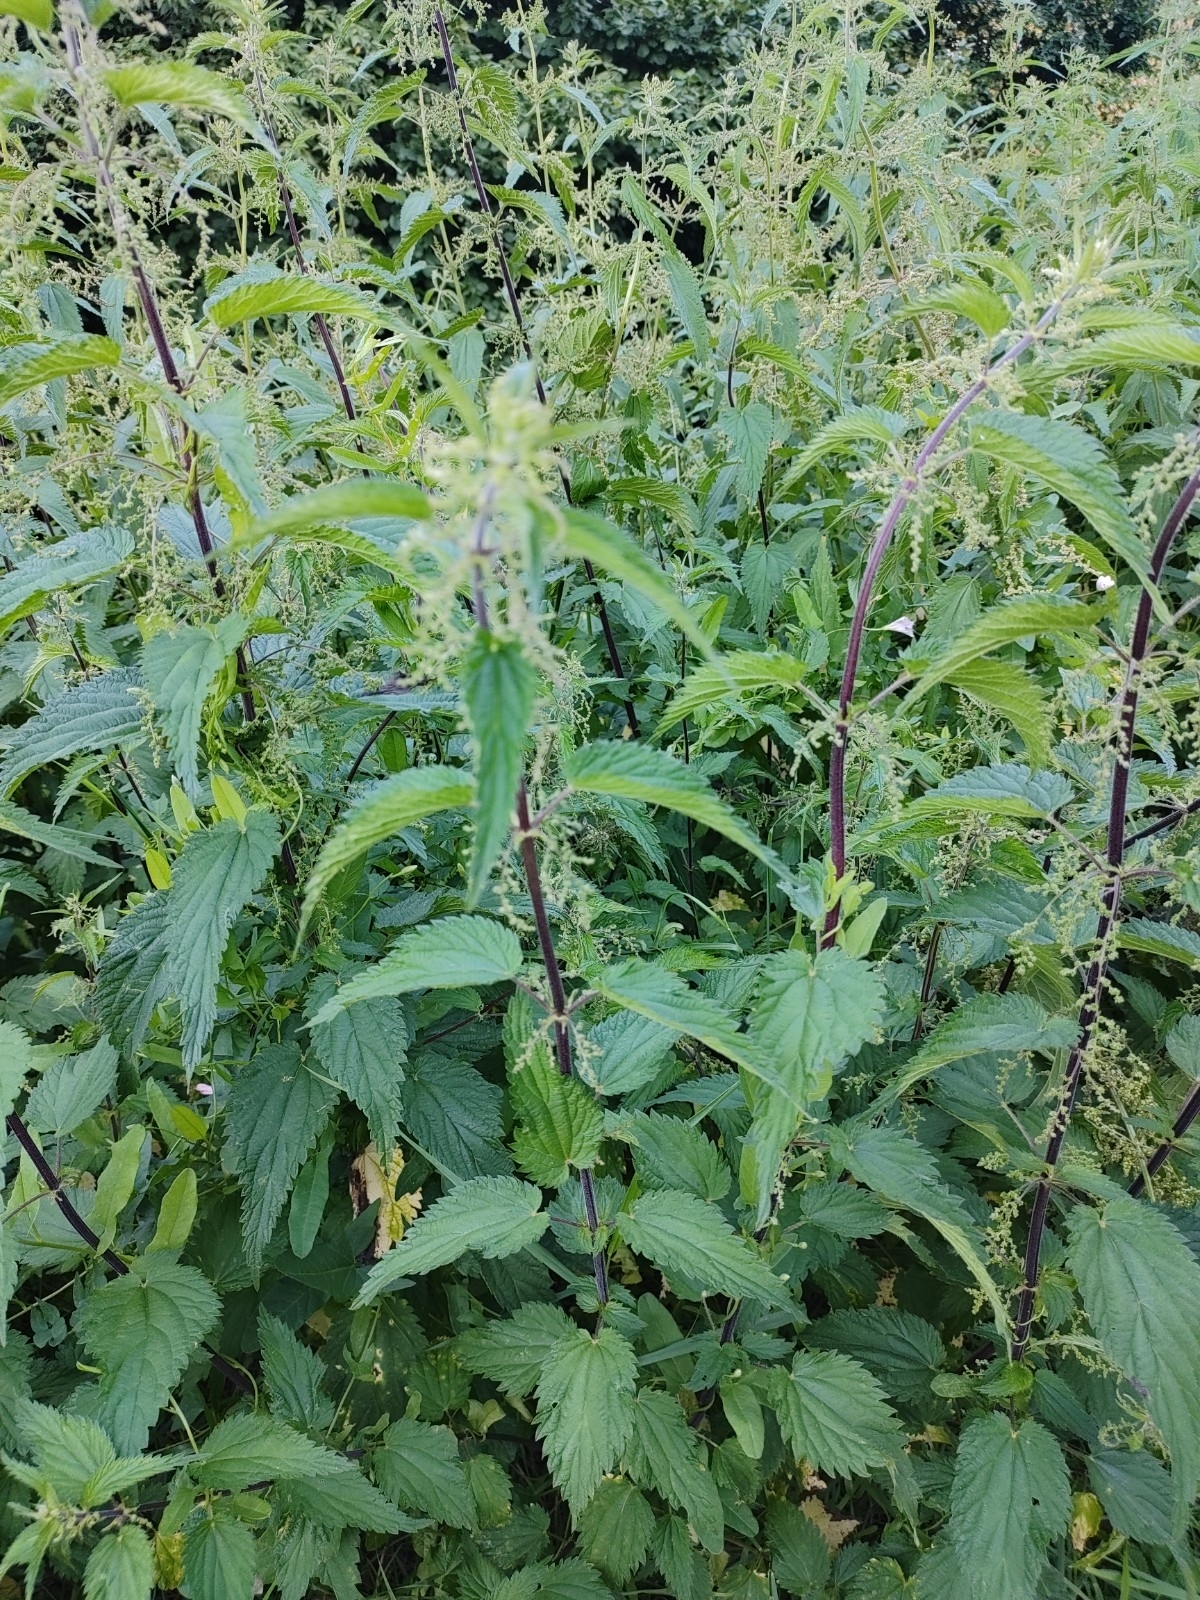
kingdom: Plantae
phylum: Tracheophyta
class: Magnoliopsida
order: Rosales
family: Urticaceae
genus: Urtica
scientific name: Urtica dioica
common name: Common nettle
